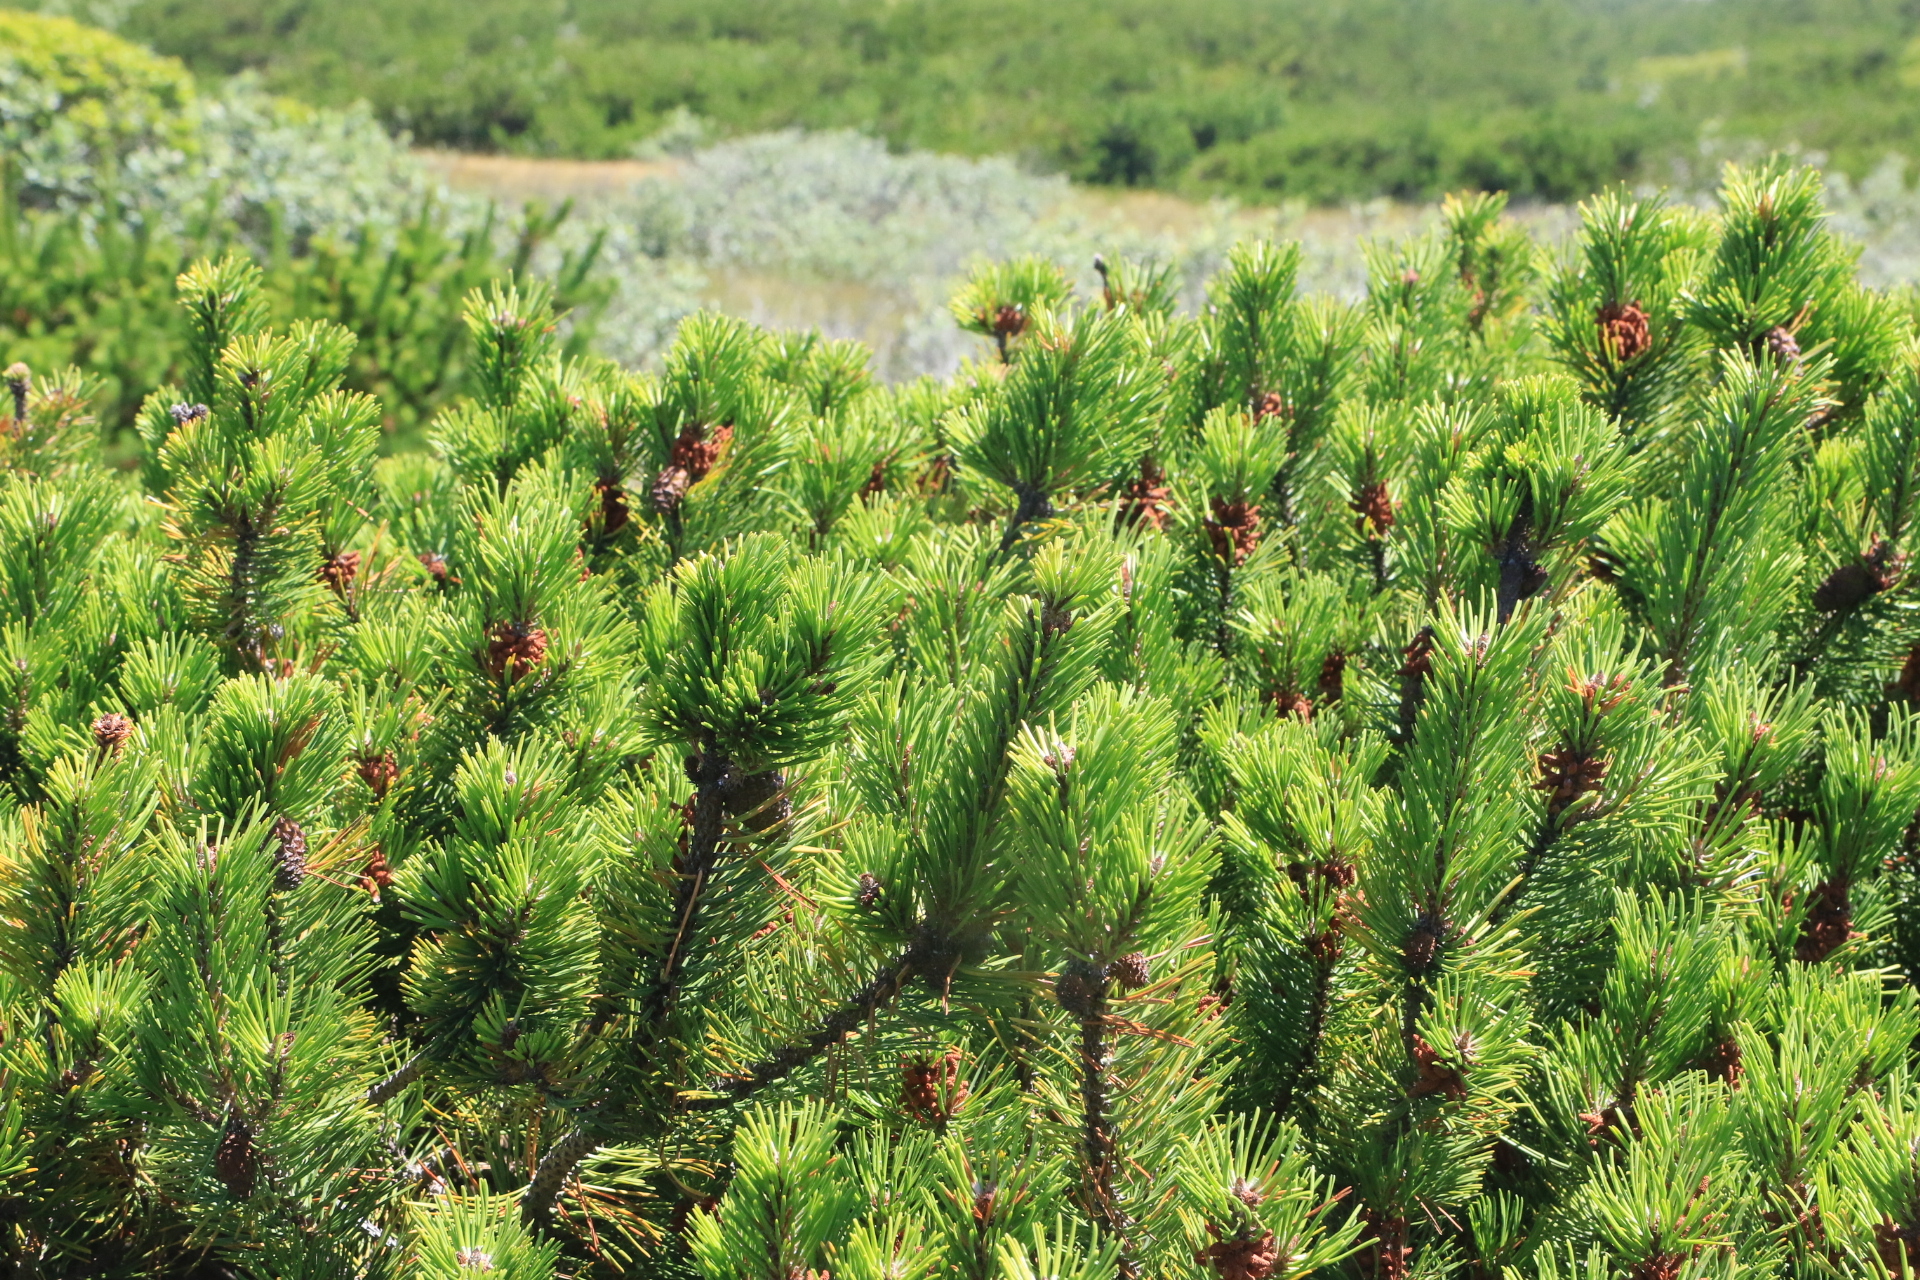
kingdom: Plantae
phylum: Tracheophyta
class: Pinopsida
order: Pinales
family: Pinaceae
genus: Pinus
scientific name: Pinus contorta
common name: Lodgepole pine
